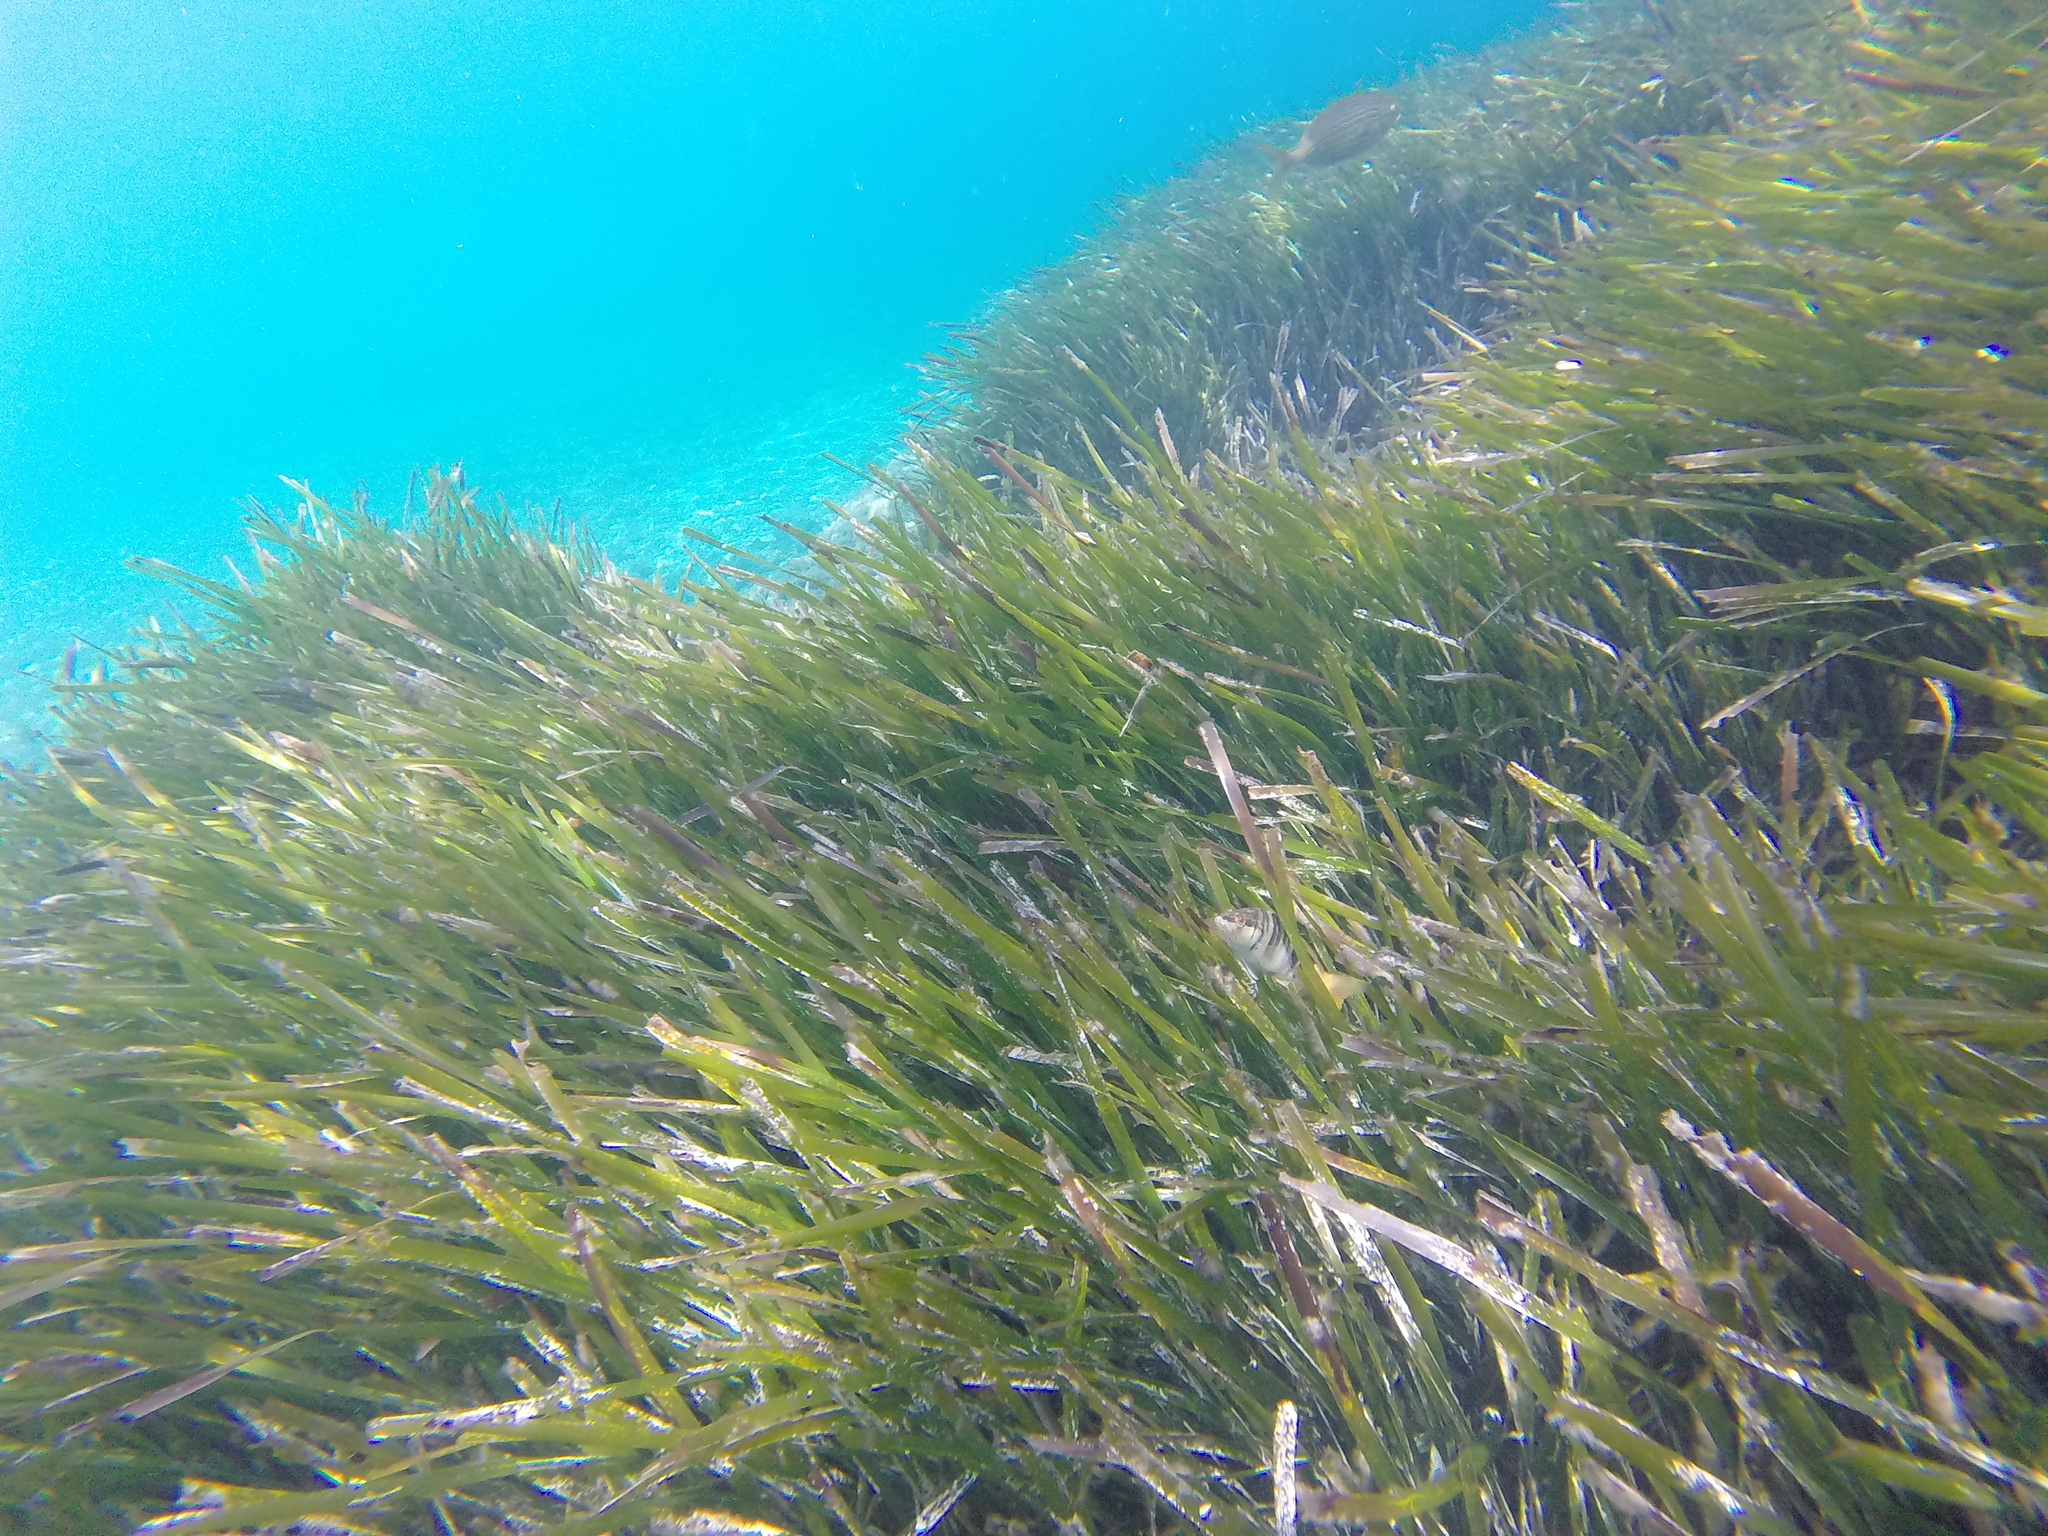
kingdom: Animalia
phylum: Chordata
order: Perciformes
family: Serranidae
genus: Serranus
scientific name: Serranus scriba
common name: Painted comber
